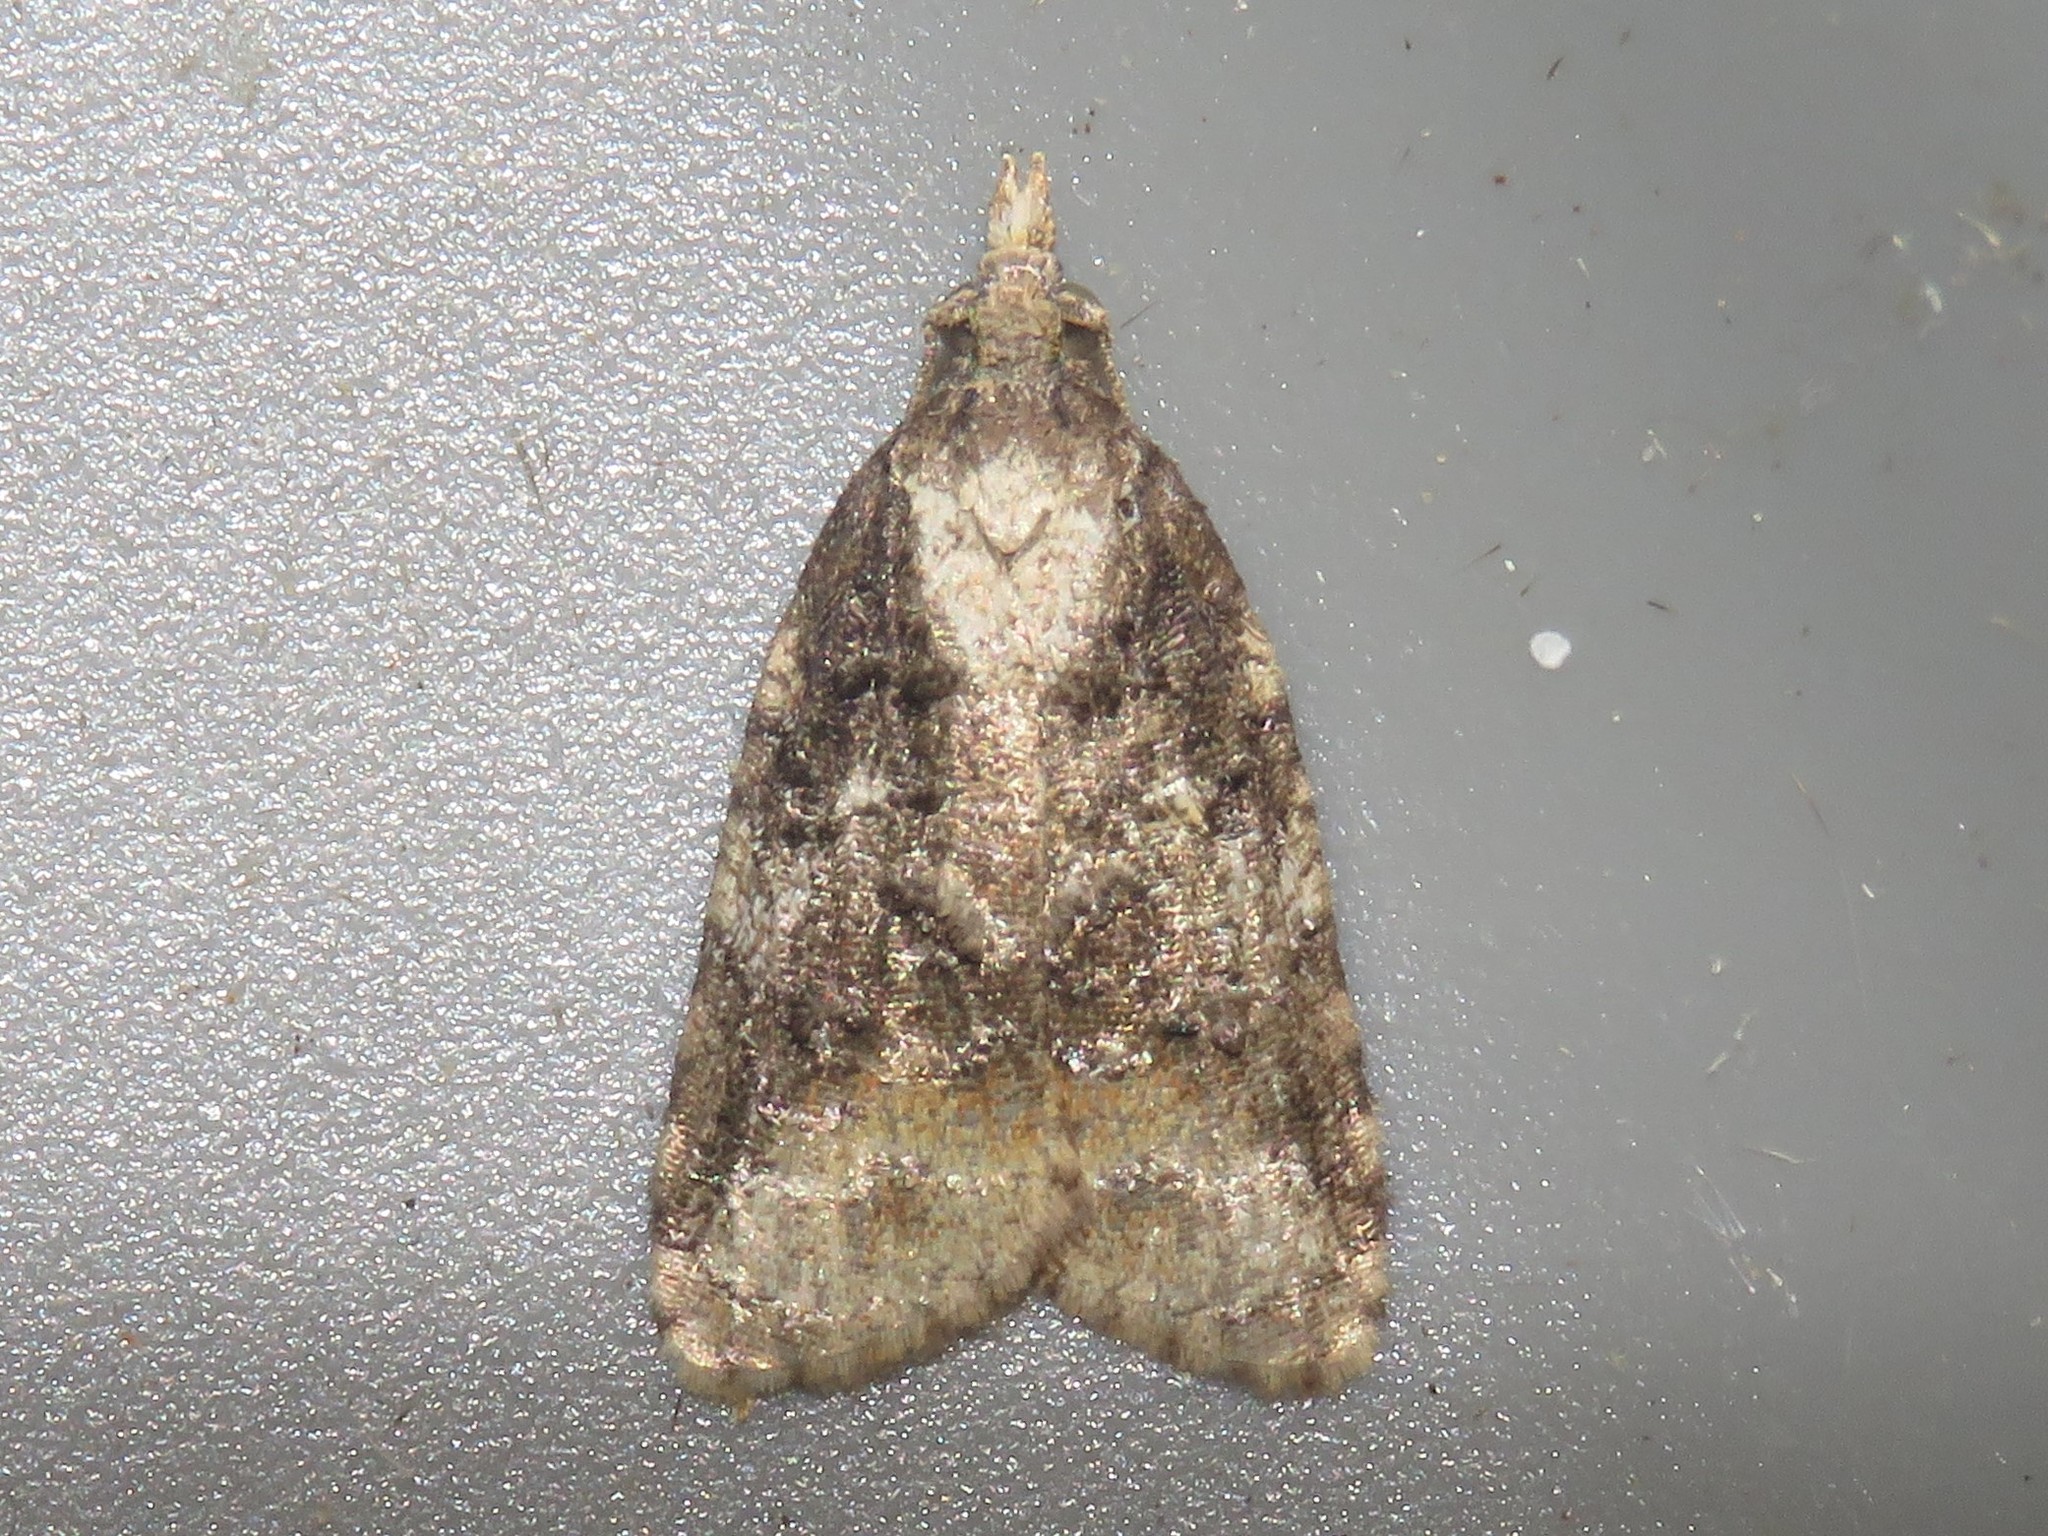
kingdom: Animalia
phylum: Arthropoda
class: Insecta
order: Lepidoptera
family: Tortricidae
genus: Platynota
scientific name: Platynota exasperatana
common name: Exasperating platynota moth
